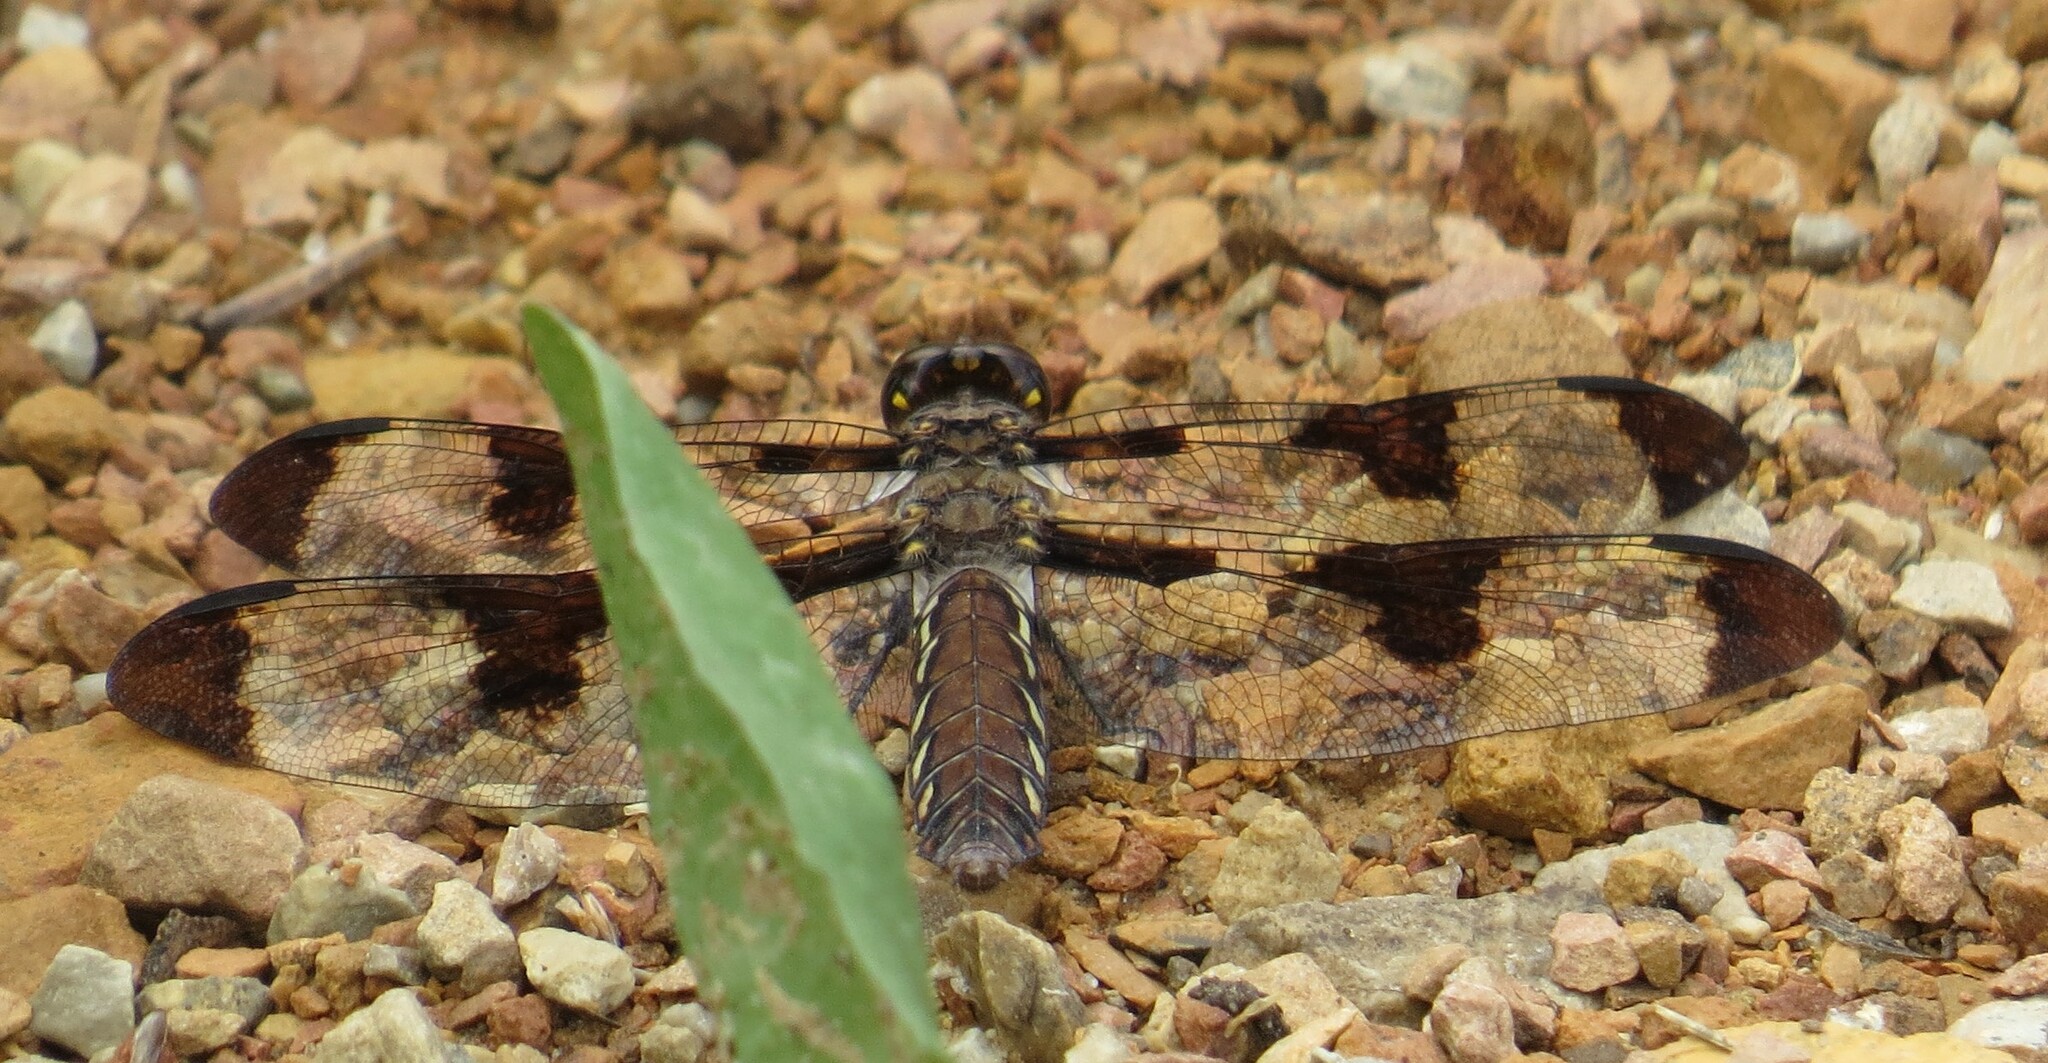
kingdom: Animalia
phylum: Arthropoda
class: Insecta
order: Odonata
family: Libellulidae
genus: Plathemis
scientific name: Plathemis lydia
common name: Common whitetail
